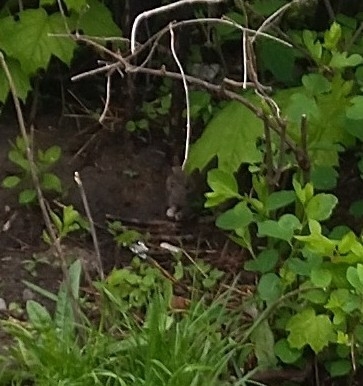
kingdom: Animalia
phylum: Chordata
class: Mammalia
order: Rodentia
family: Muridae
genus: Rattus
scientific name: Rattus norvegicus
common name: Brown rat
